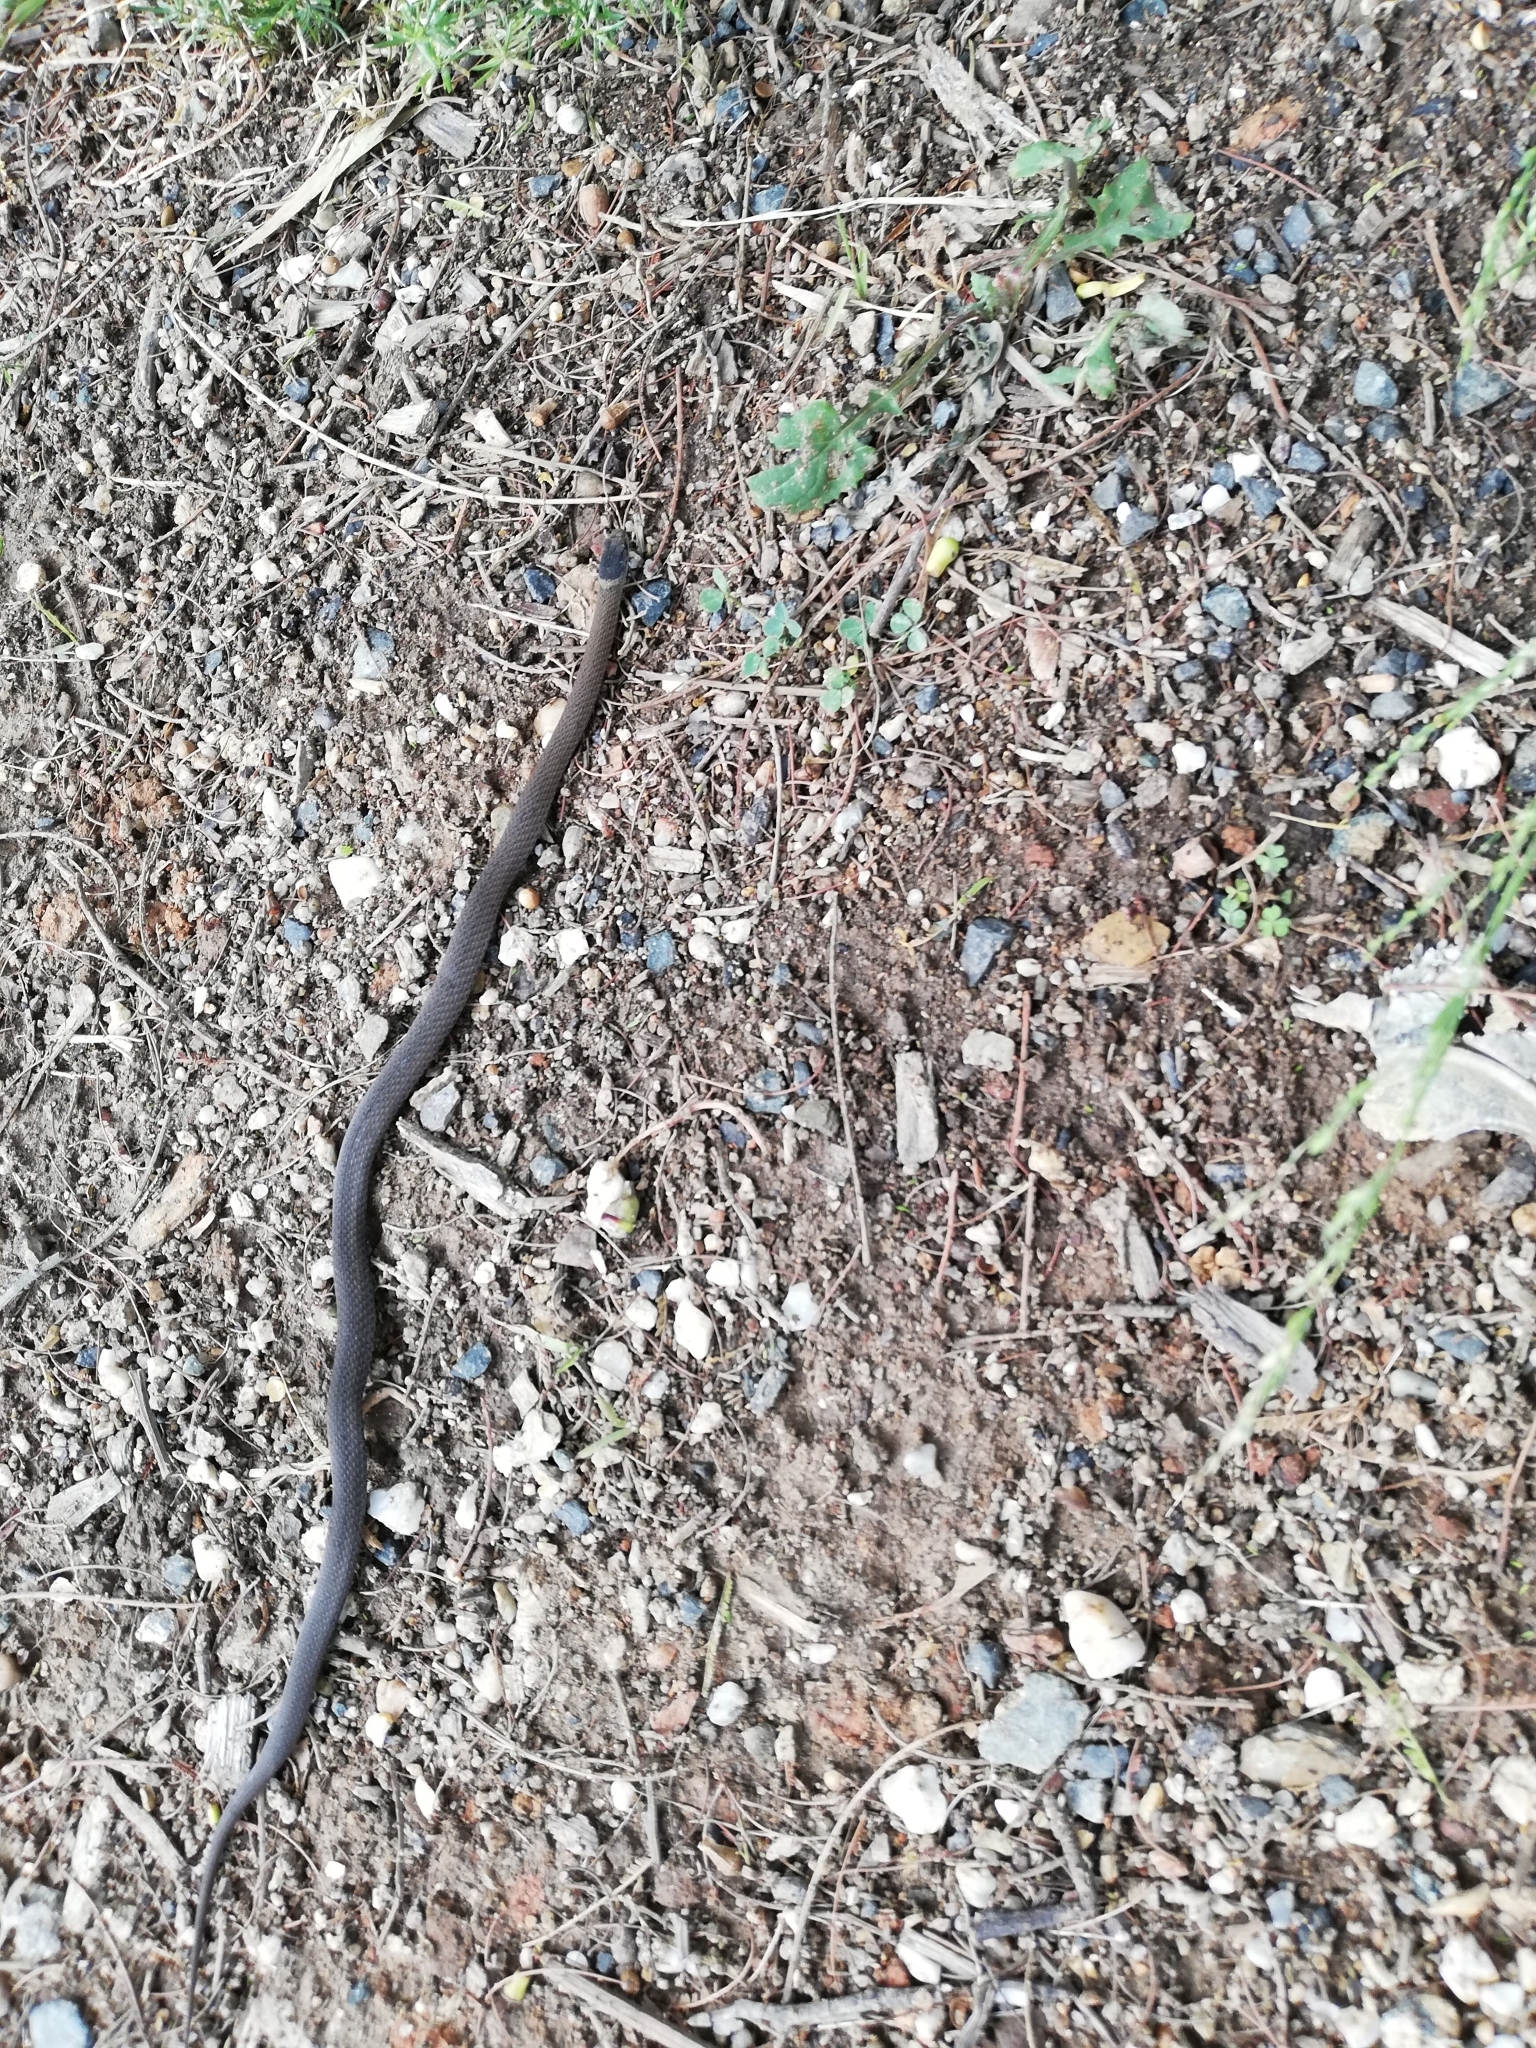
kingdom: Animalia
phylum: Chordata
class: Squamata
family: Elapidae
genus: Drysdalia
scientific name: Drysdalia rhodogaster
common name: Mustard-bellied snake
